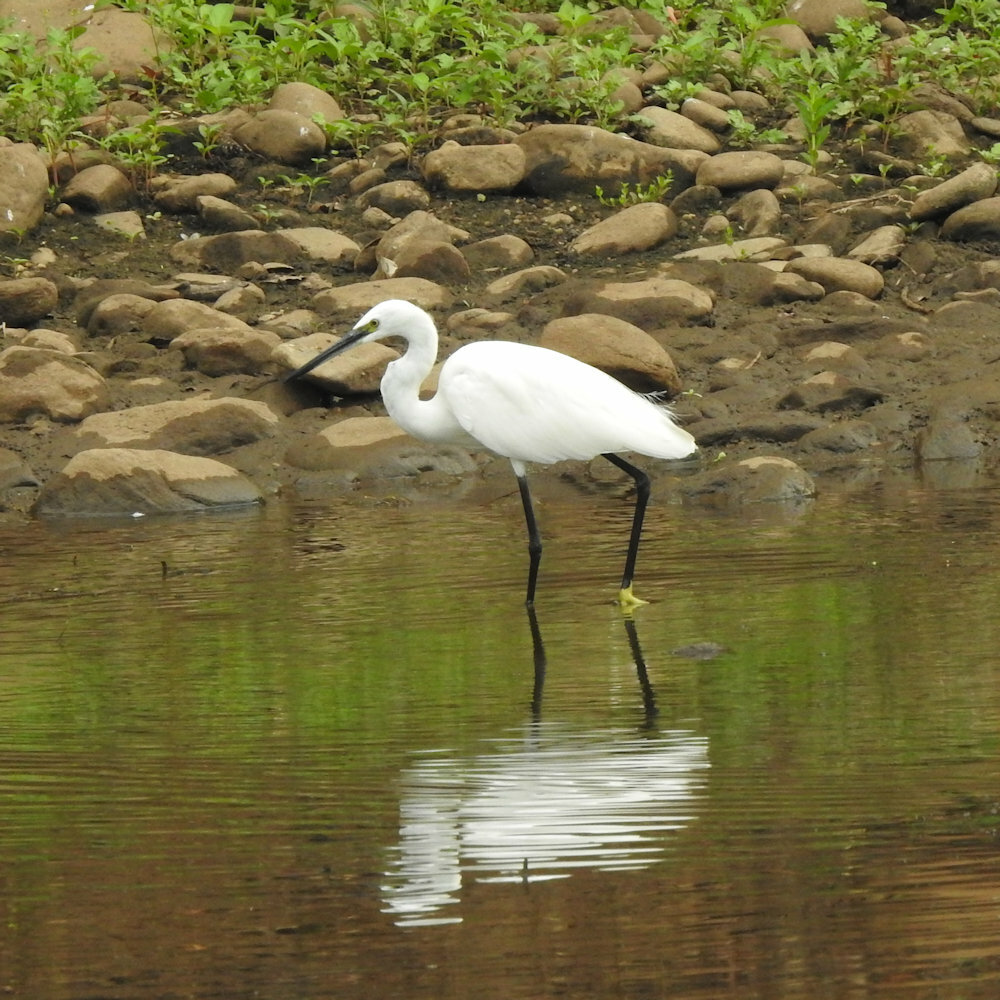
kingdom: Animalia
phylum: Chordata
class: Aves
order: Pelecaniformes
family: Ardeidae
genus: Egretta
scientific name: Egretta garzetta
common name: Little egret
